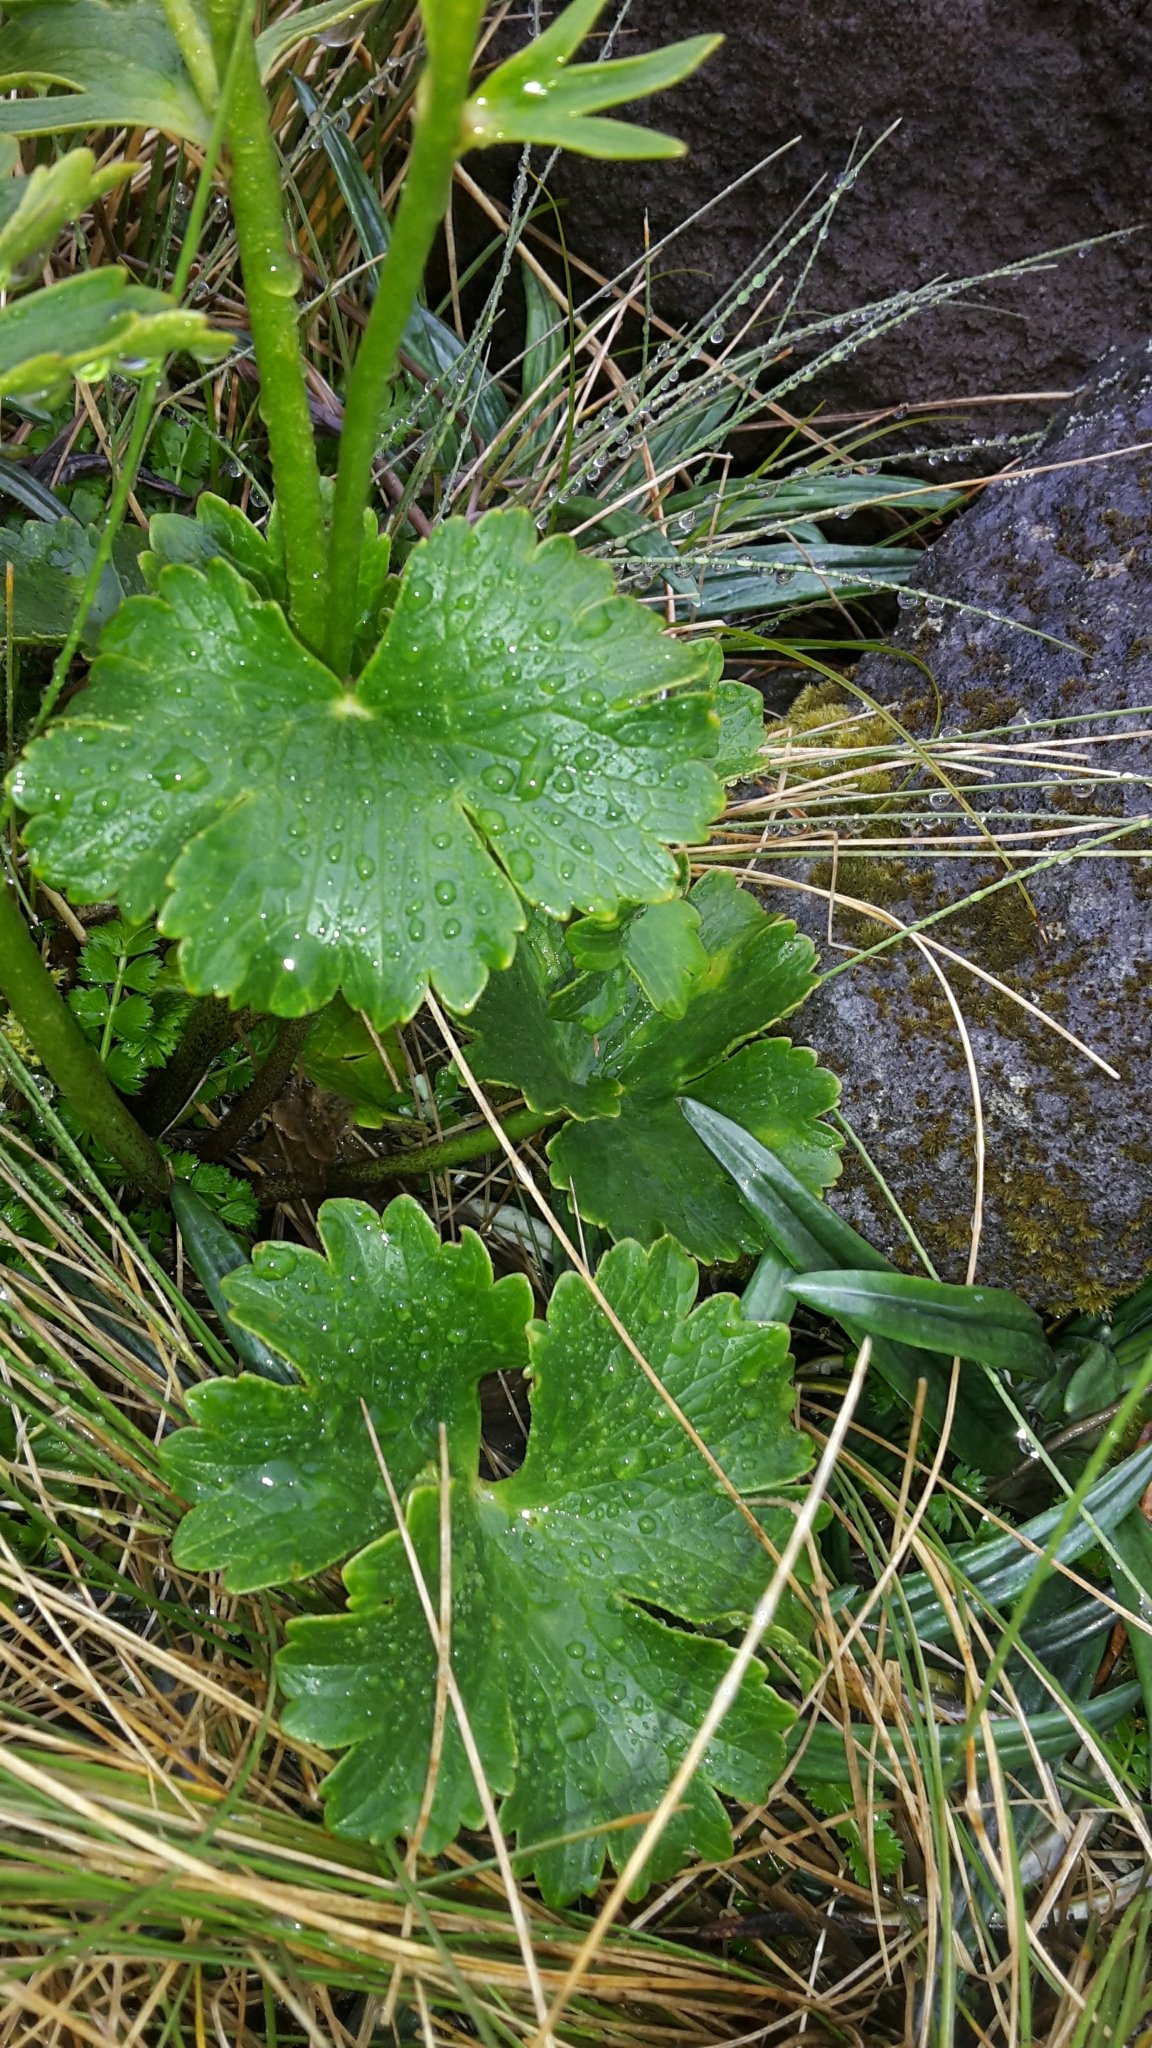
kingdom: Plantae
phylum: Tracheophyta
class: Magnoliopsida
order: Ranunculales
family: Ranunculaceae
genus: Ranunculus
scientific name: Ranunculus nivicola
